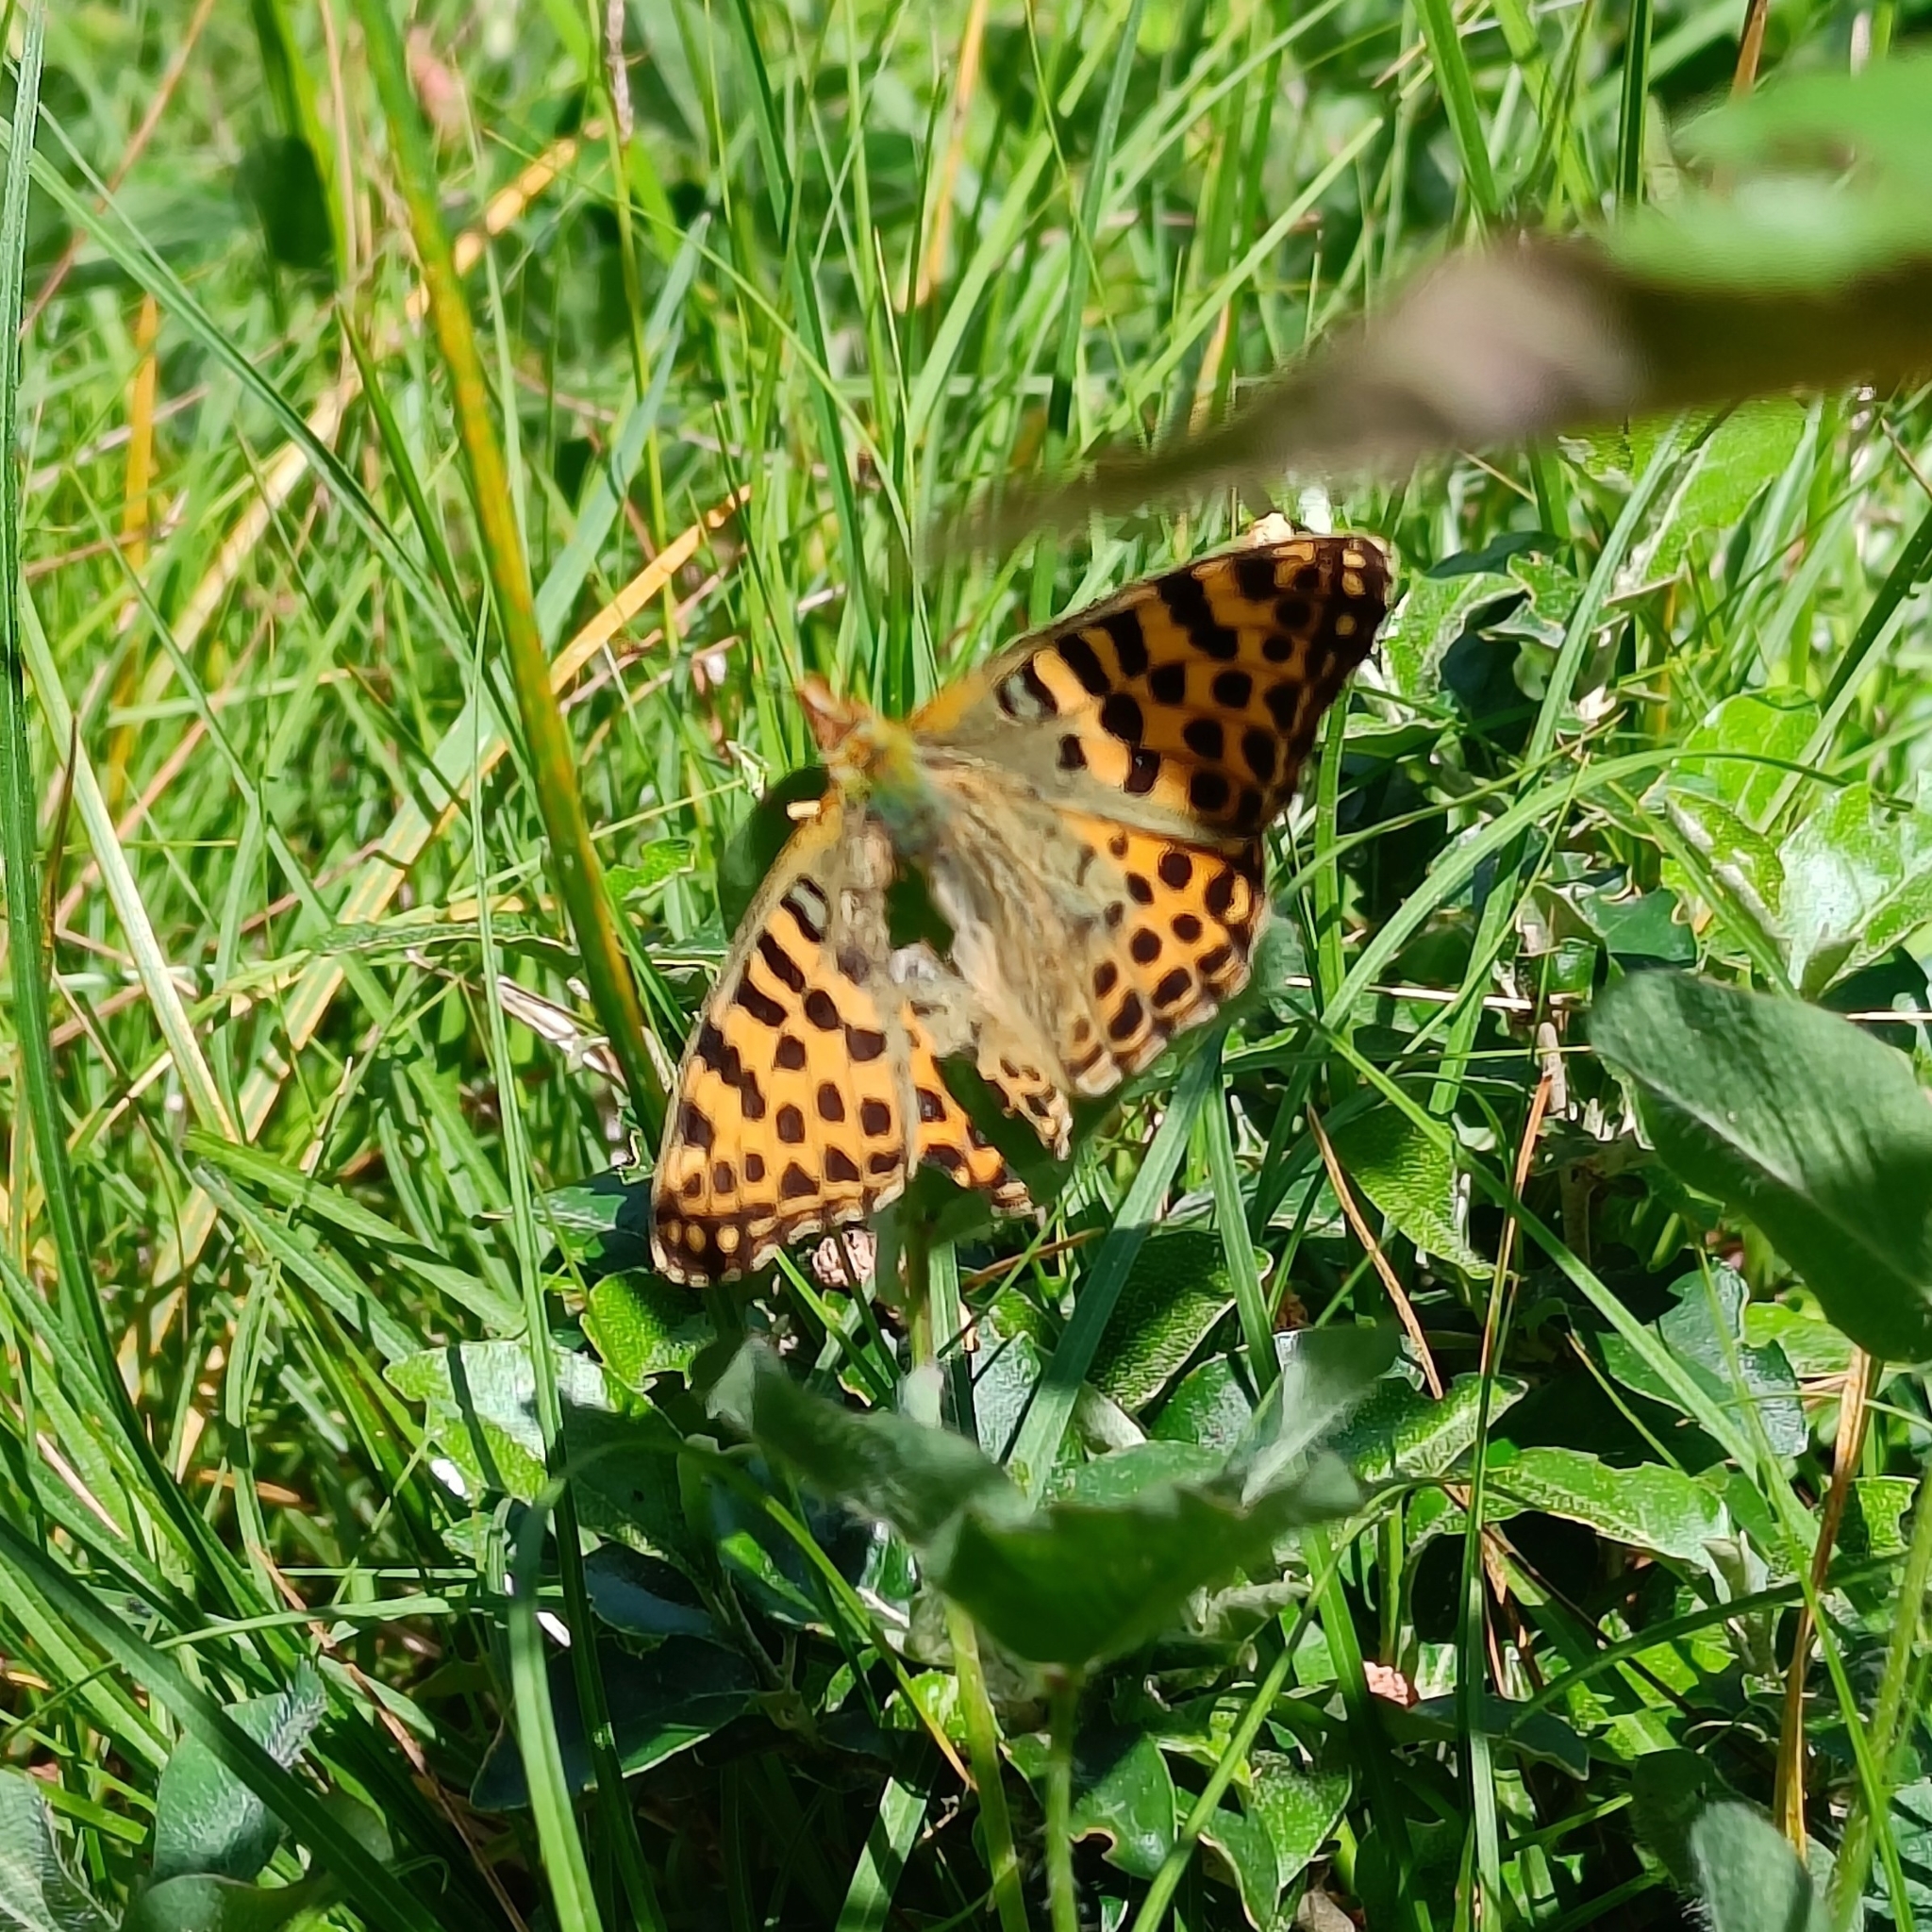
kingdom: Animalia
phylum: Arthropoda
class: Insecta
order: Lepidoptera
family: Nymphalidae
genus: Issoria
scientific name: Issoria
